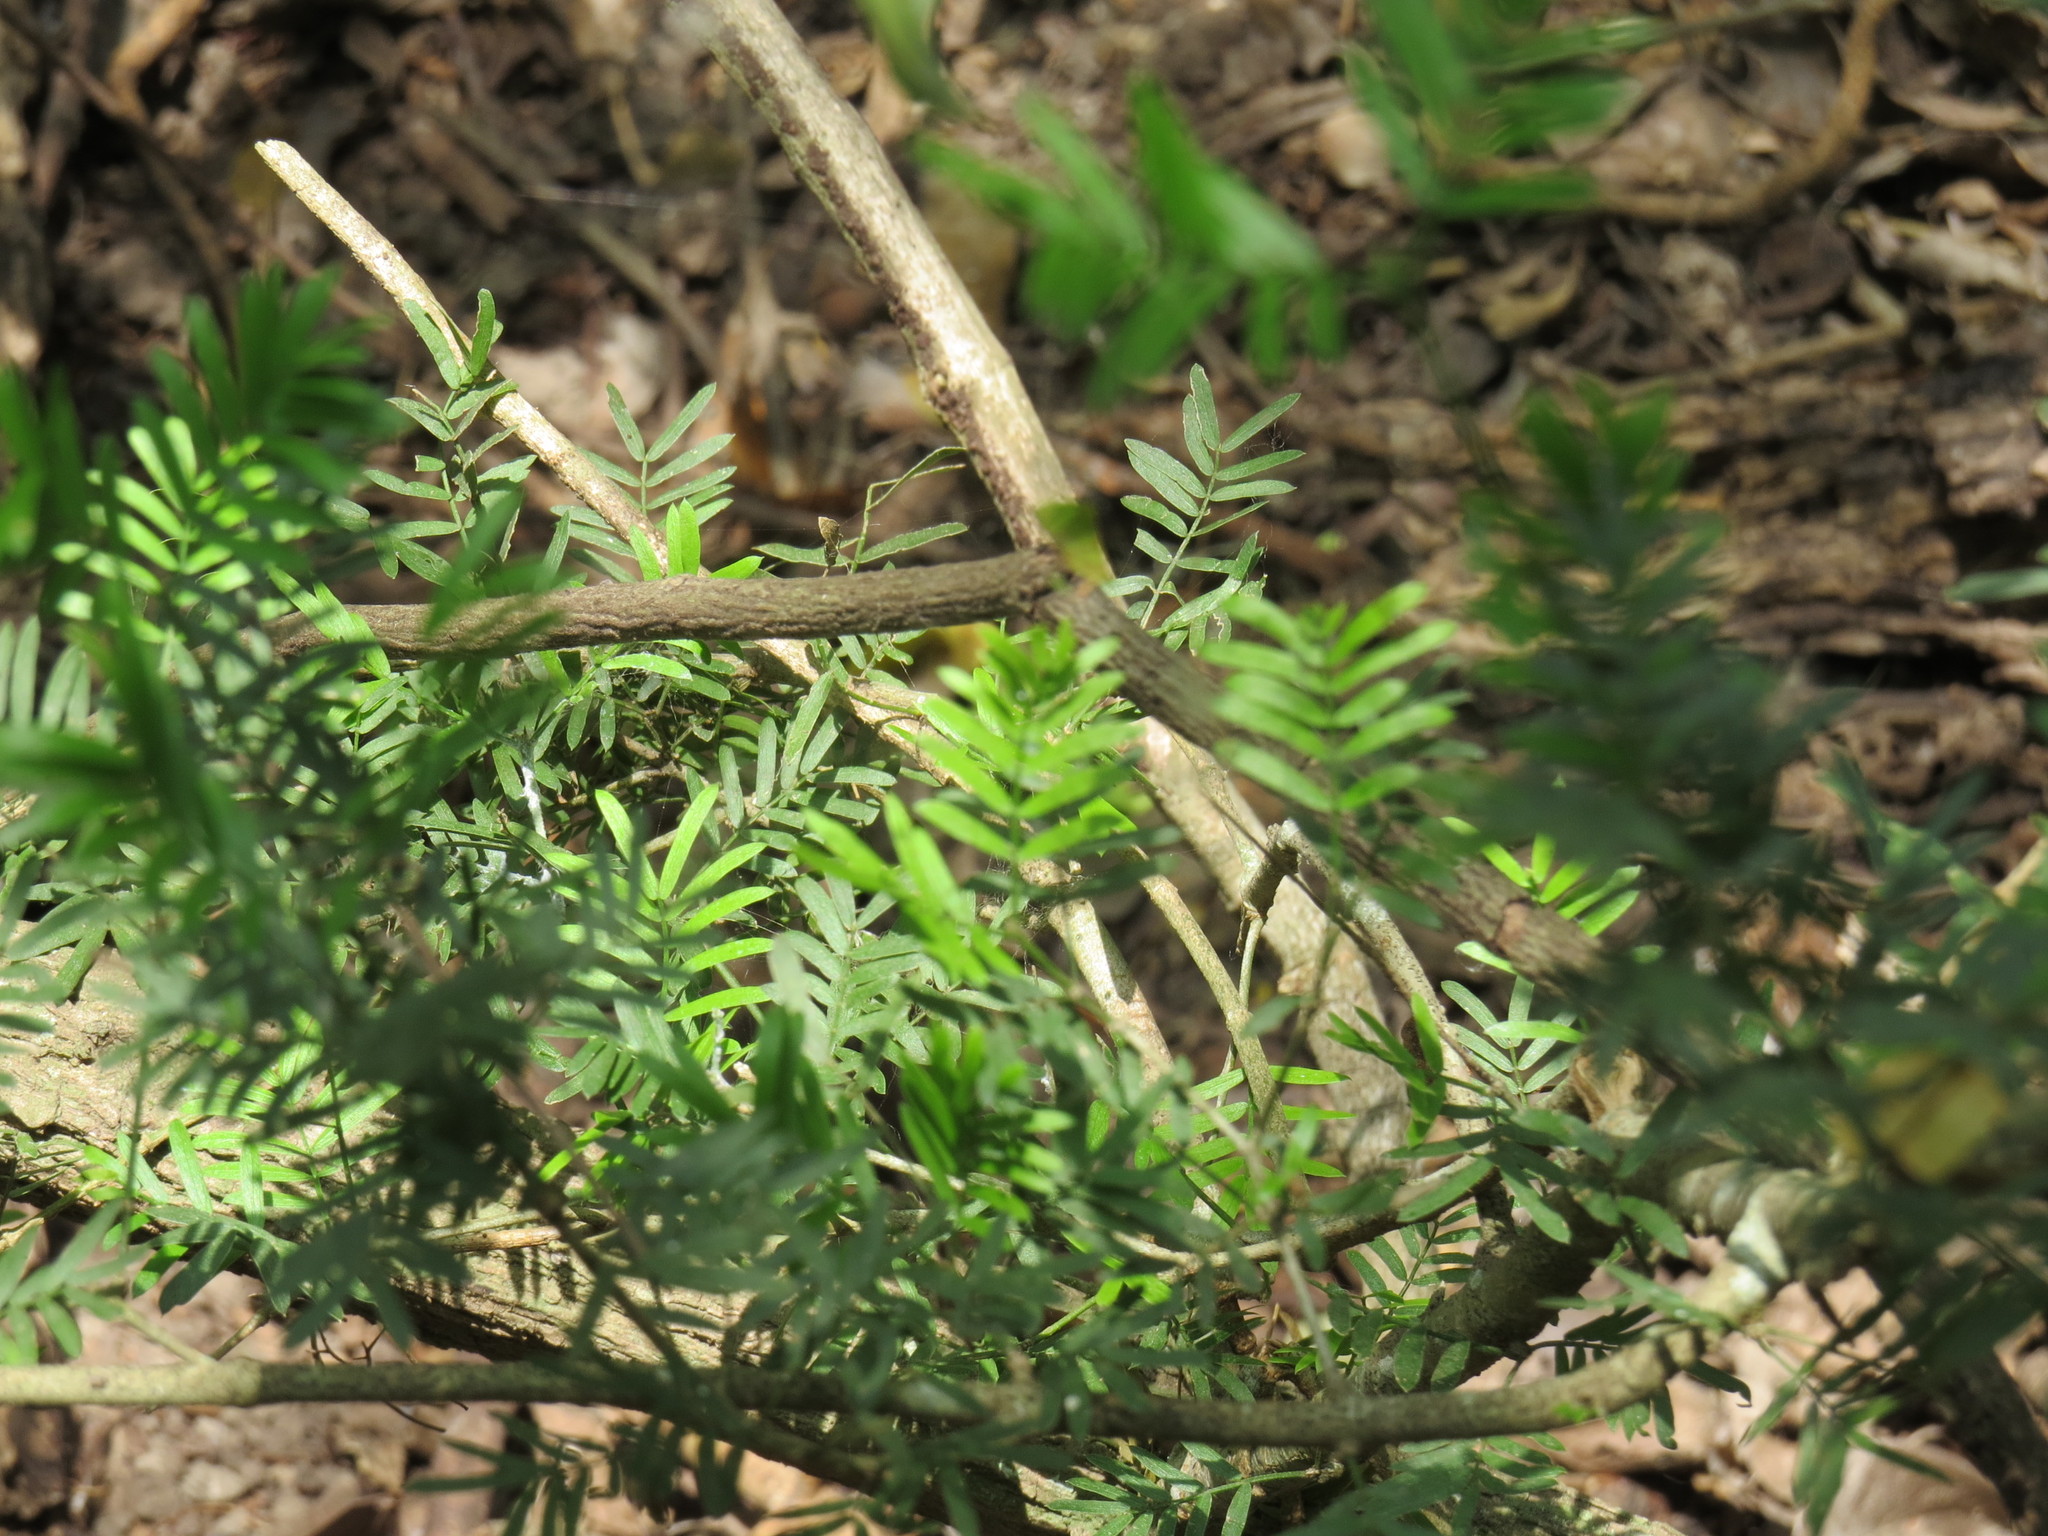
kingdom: Plantae
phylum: Tracheophyta
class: Magnoliopsida
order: Zygophyllales
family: Zygophyllaceae
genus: Porlieria
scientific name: Porlieria angustifolia
